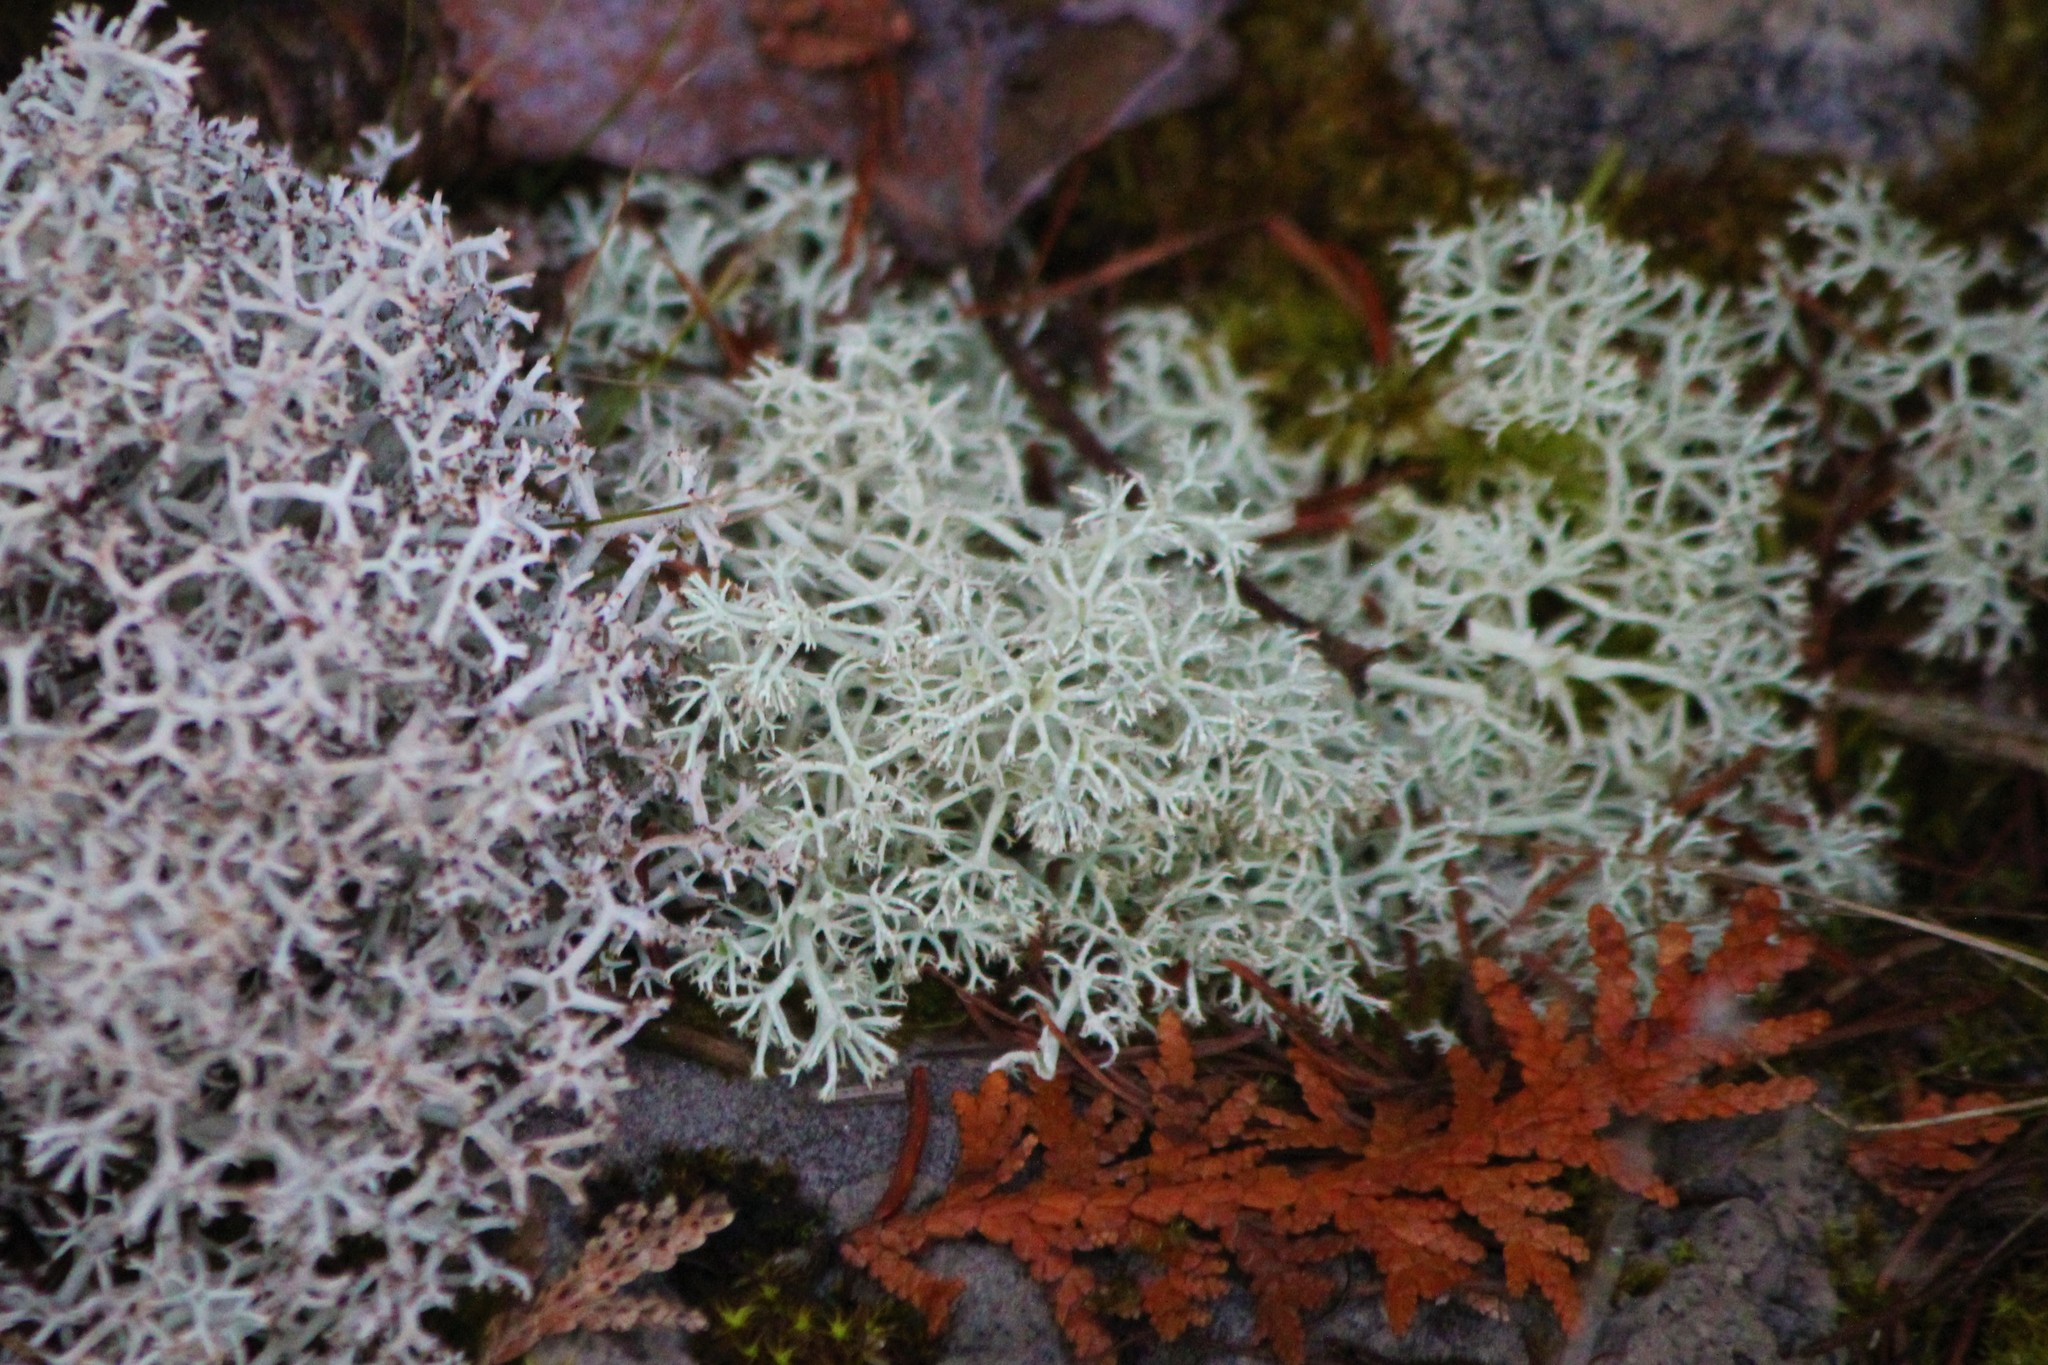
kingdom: Fungi
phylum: Ascomycota
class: Lecanoromycetes
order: Lecanorales
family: Cladoniaceae
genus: Cladonia
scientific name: Cladonia mitis
